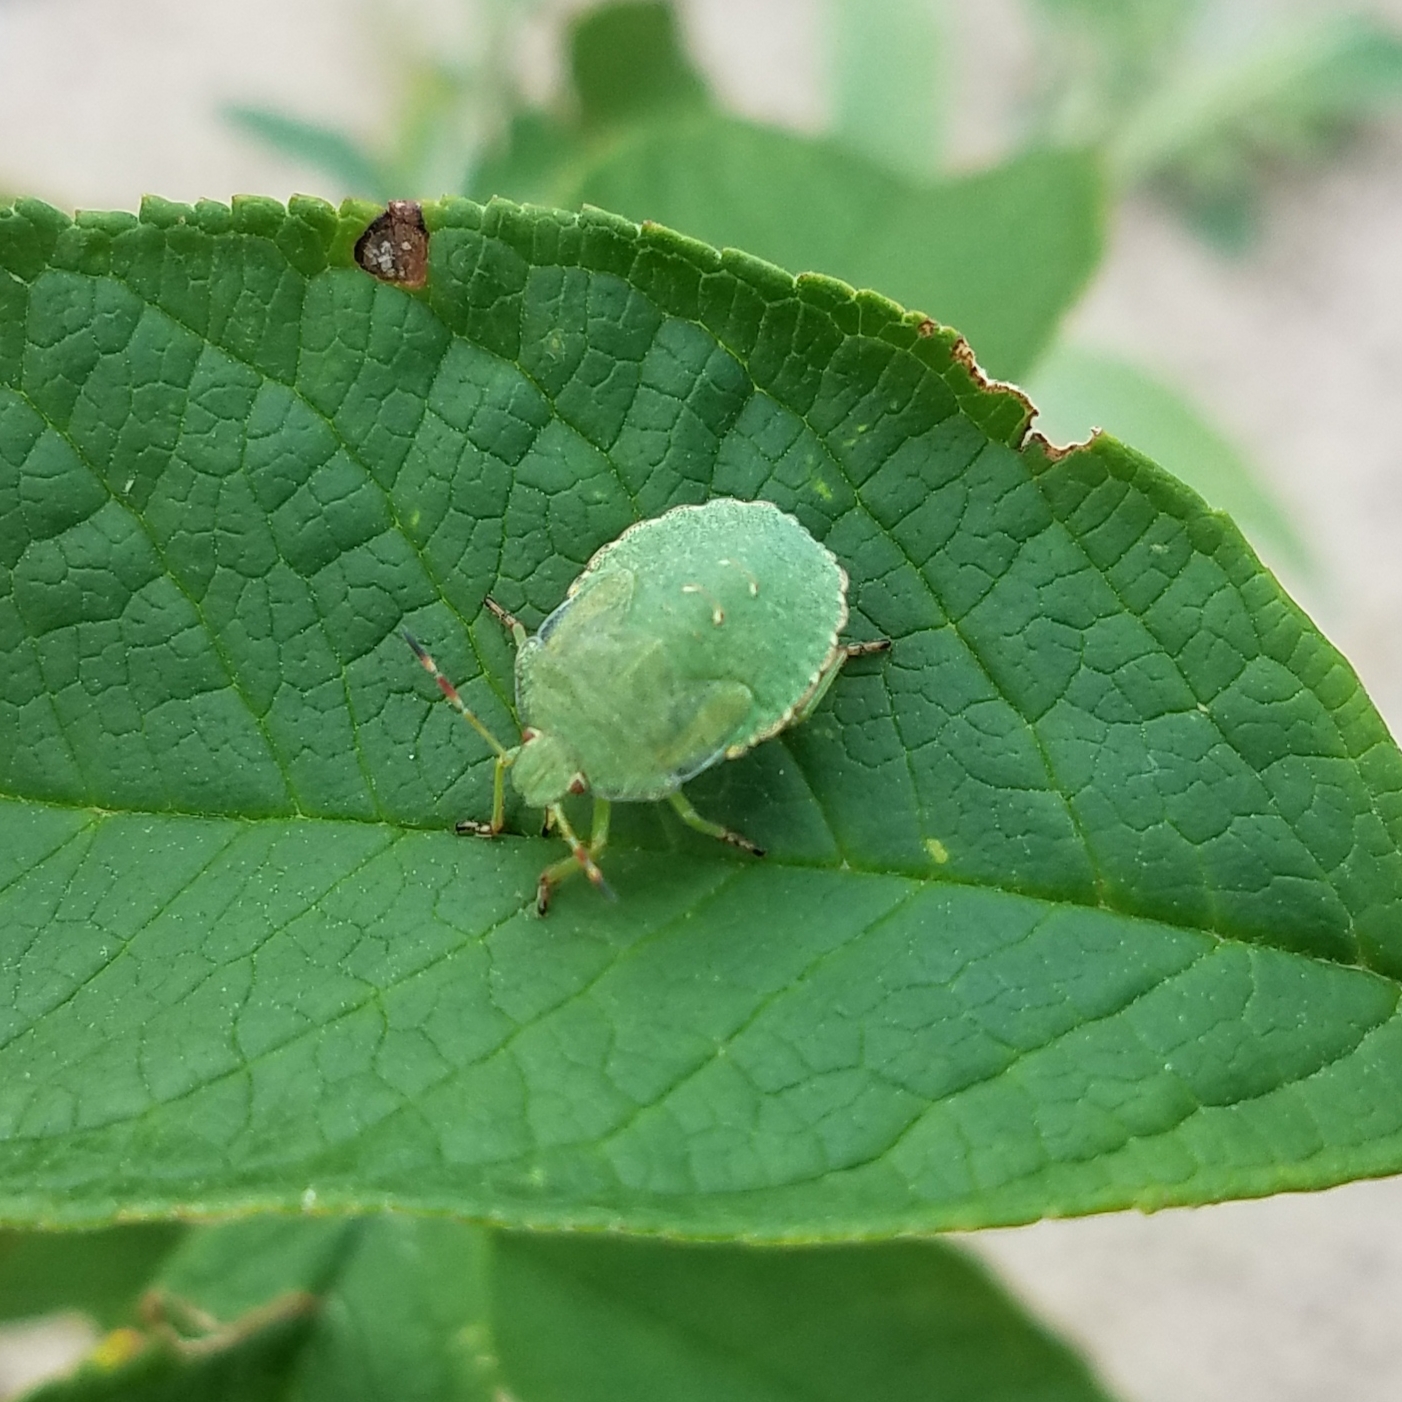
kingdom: Animalia
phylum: Arthropoda
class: Insecta
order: Hemiptera
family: Pentatomidae
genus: Palomena
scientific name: Palomena prasina
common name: Green shieldbug
